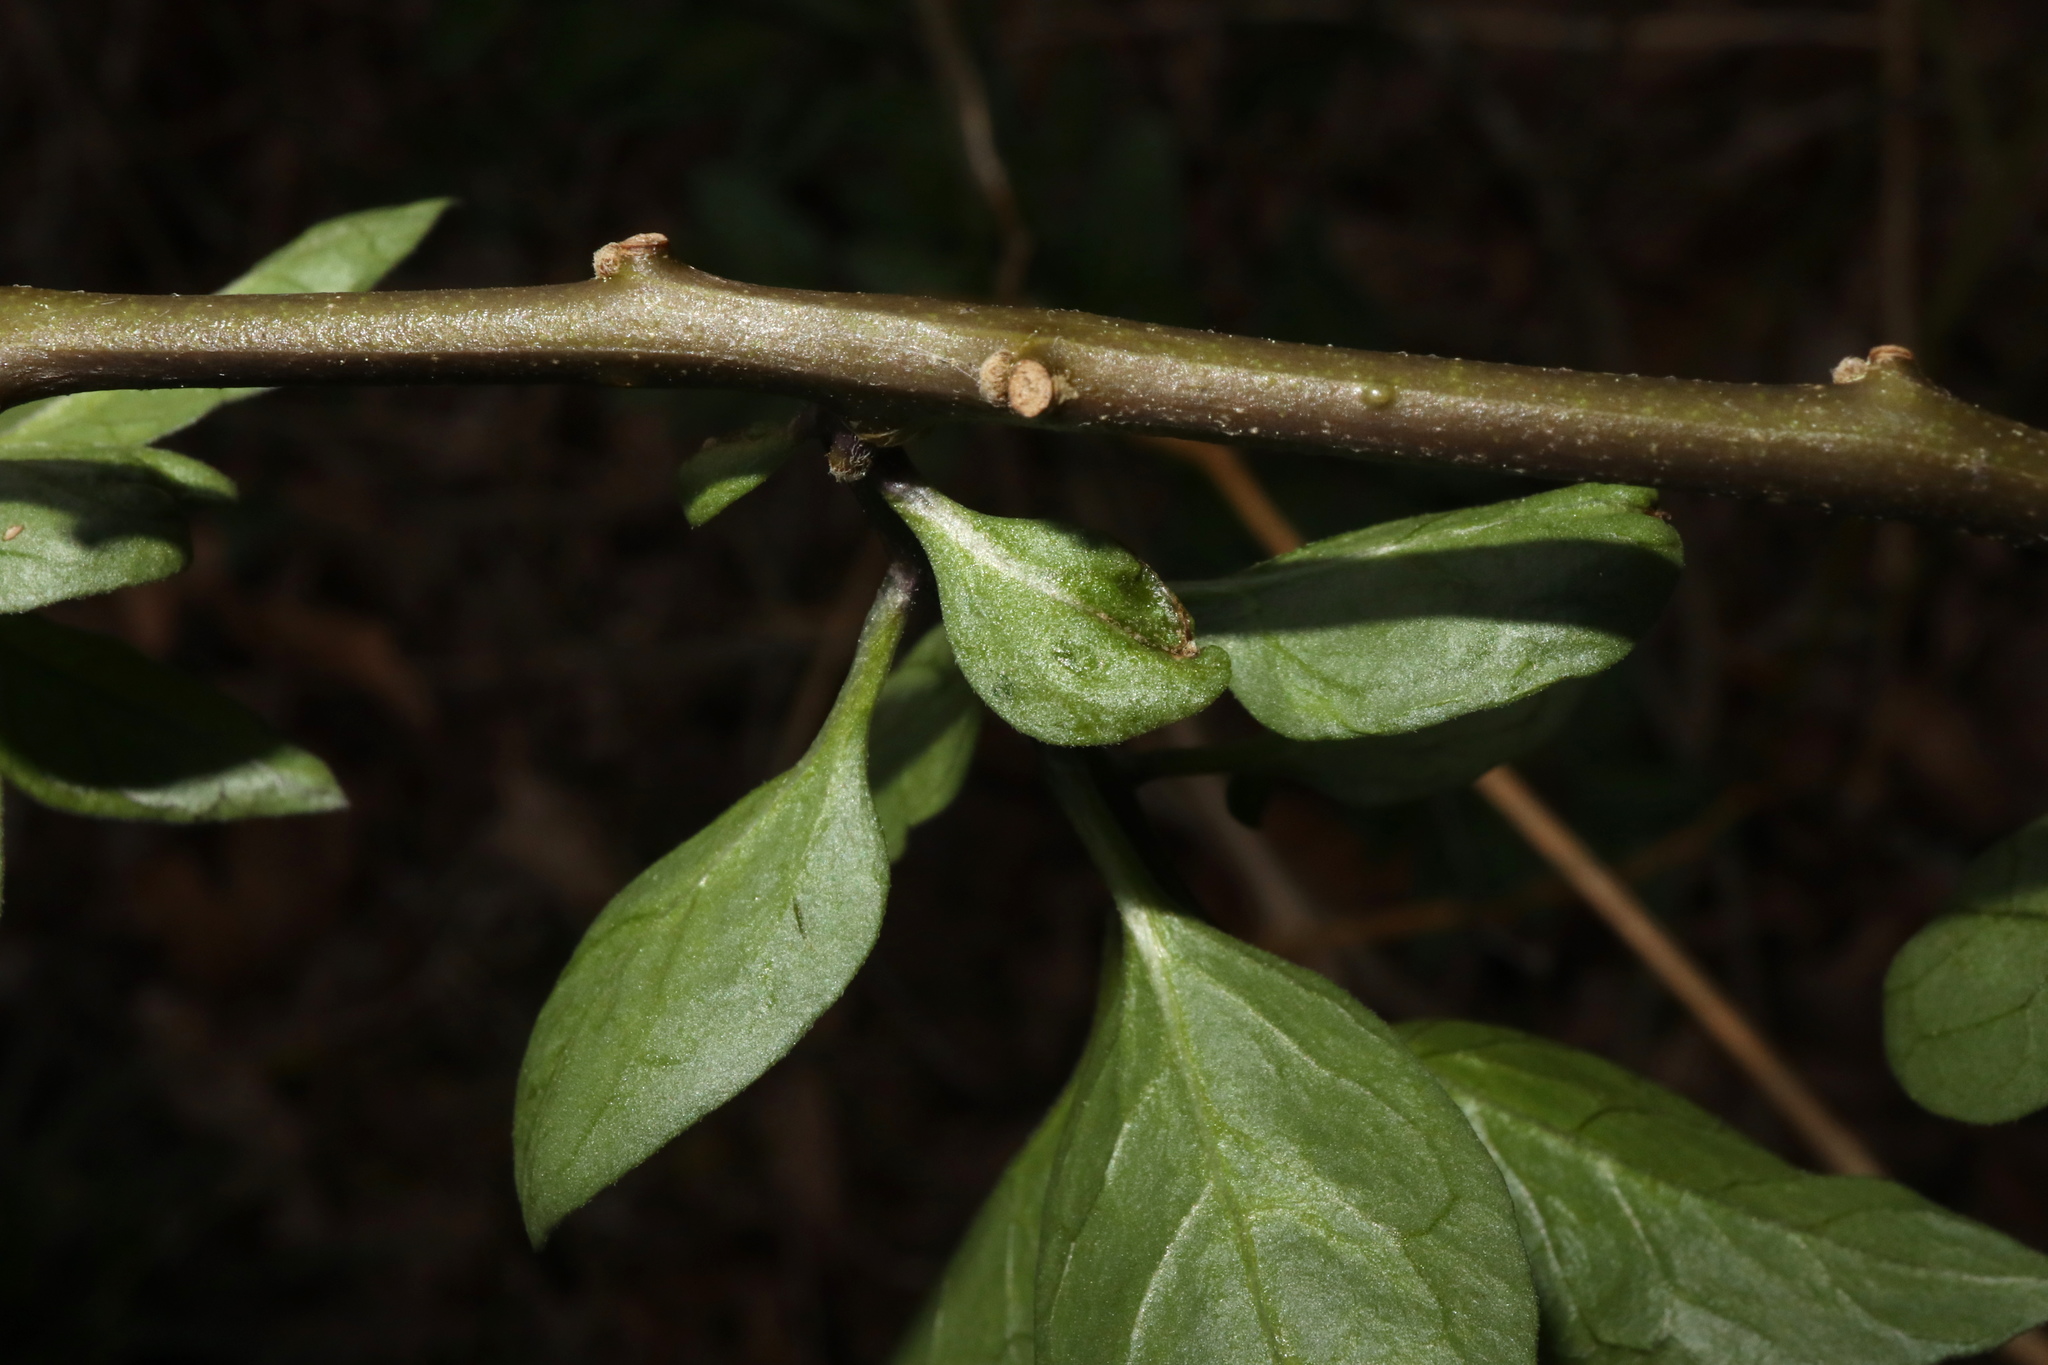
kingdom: Plantae
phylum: Tracheophyta
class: Magnoliopsida
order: Solanales
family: Solanaceae
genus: Solanum
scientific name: Solanum dulcamara
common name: Climbing nightshade
